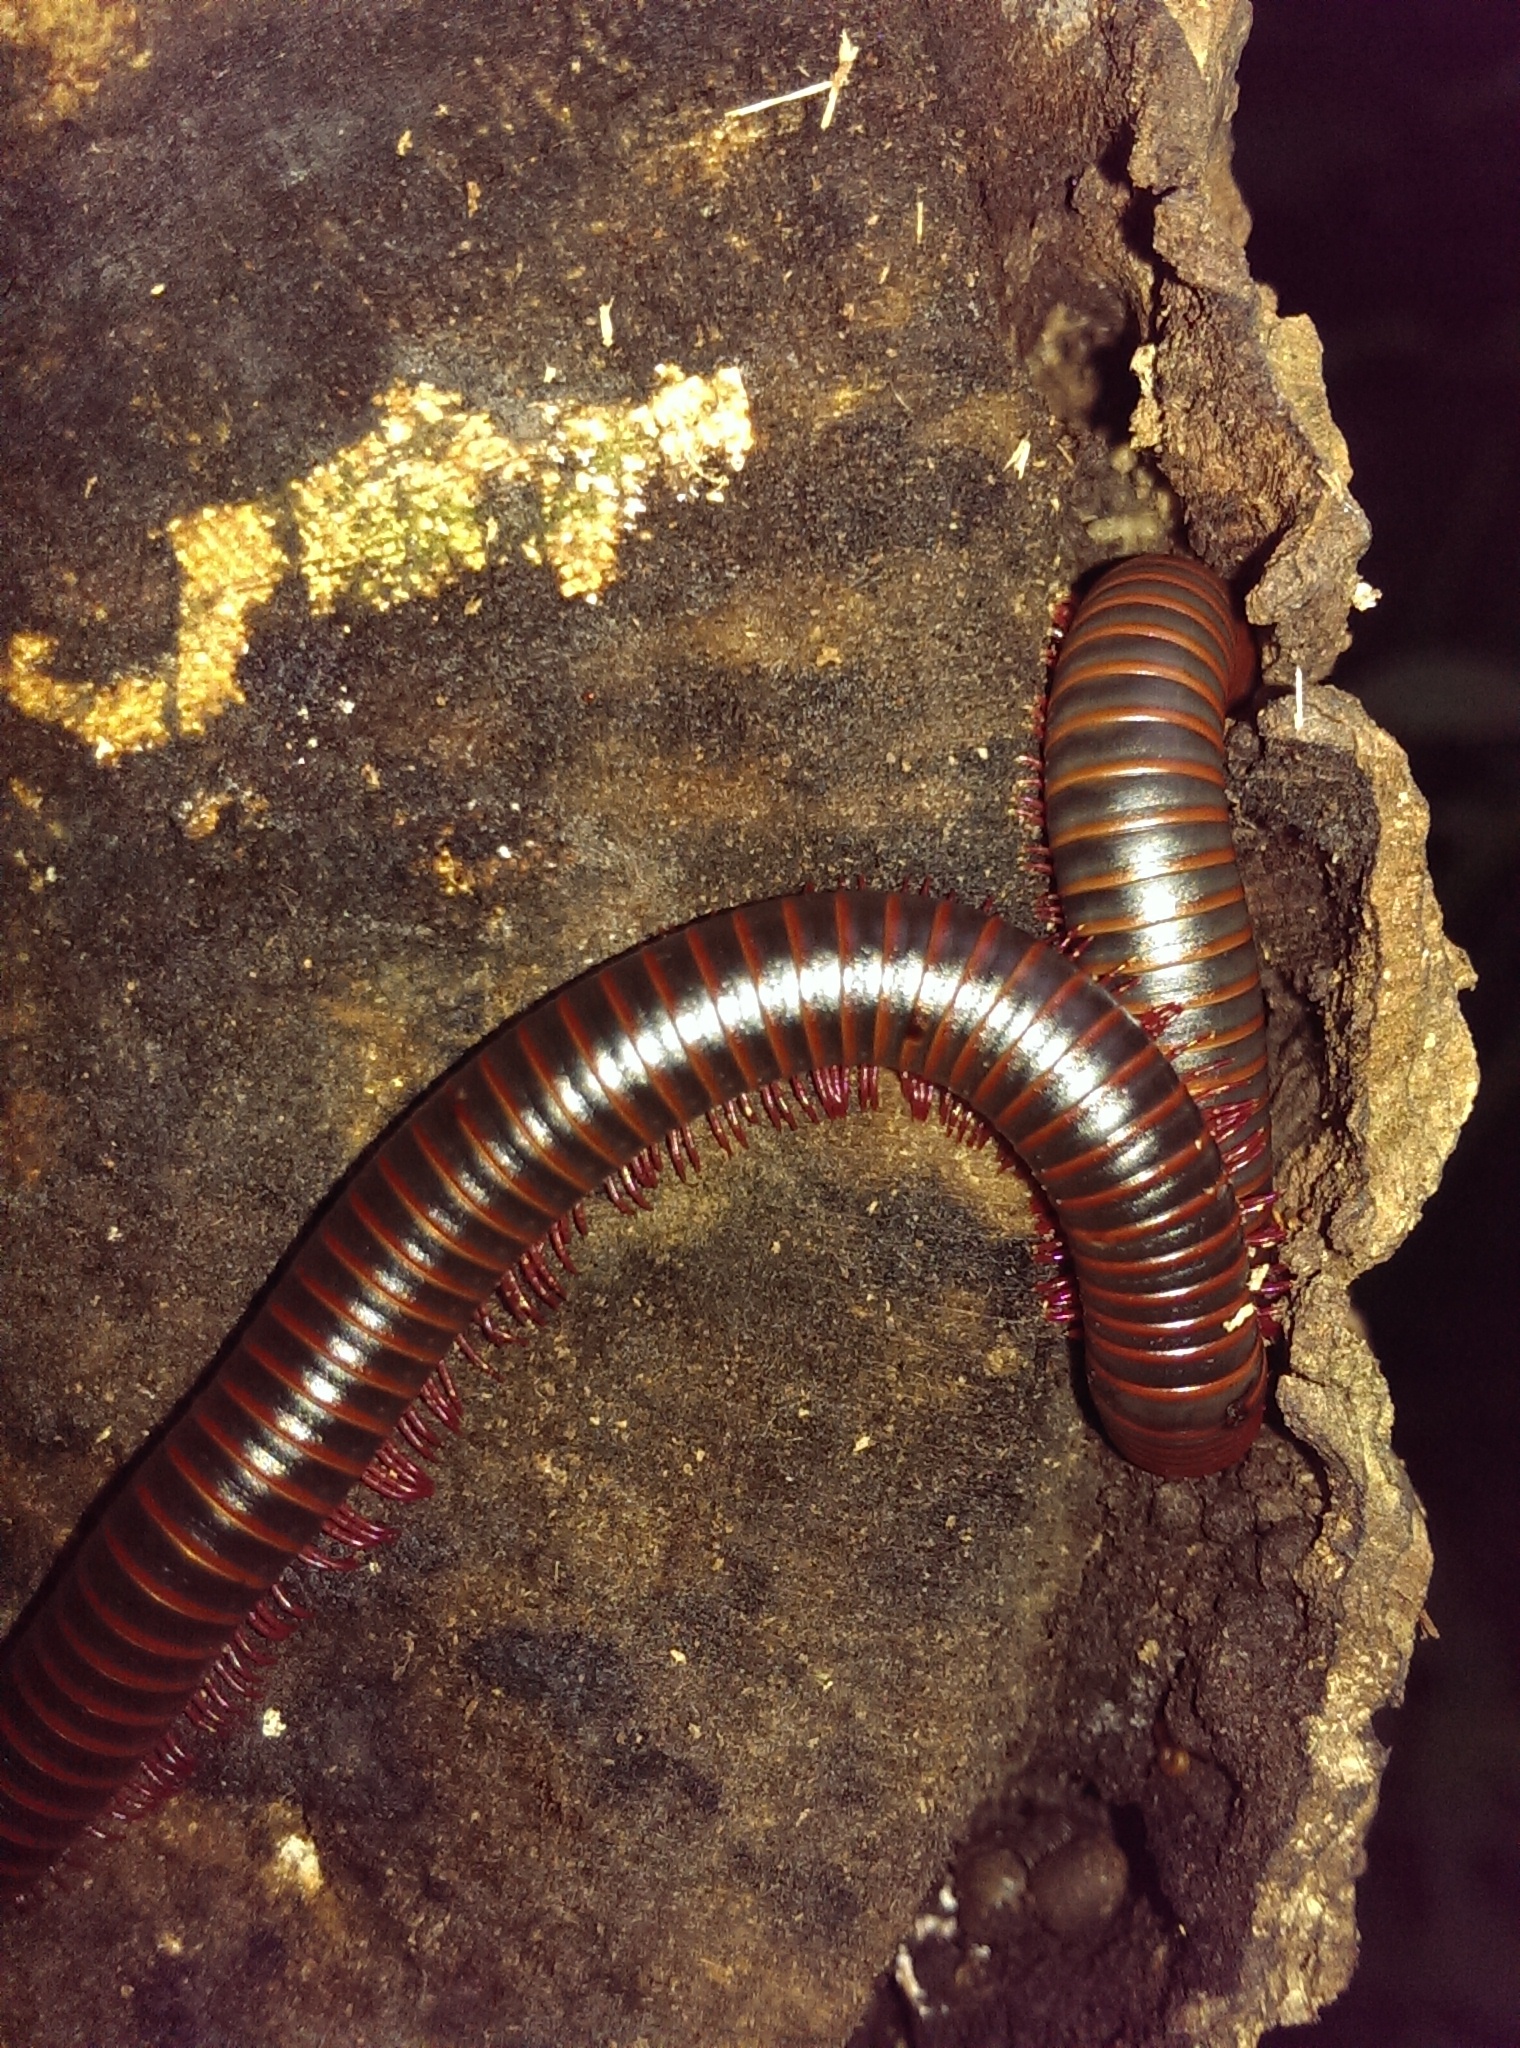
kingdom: Animalia
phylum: Arthropoda
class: Diplopoda
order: Spirobolida
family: Spirobolidae
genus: Narceus
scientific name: Narceus
